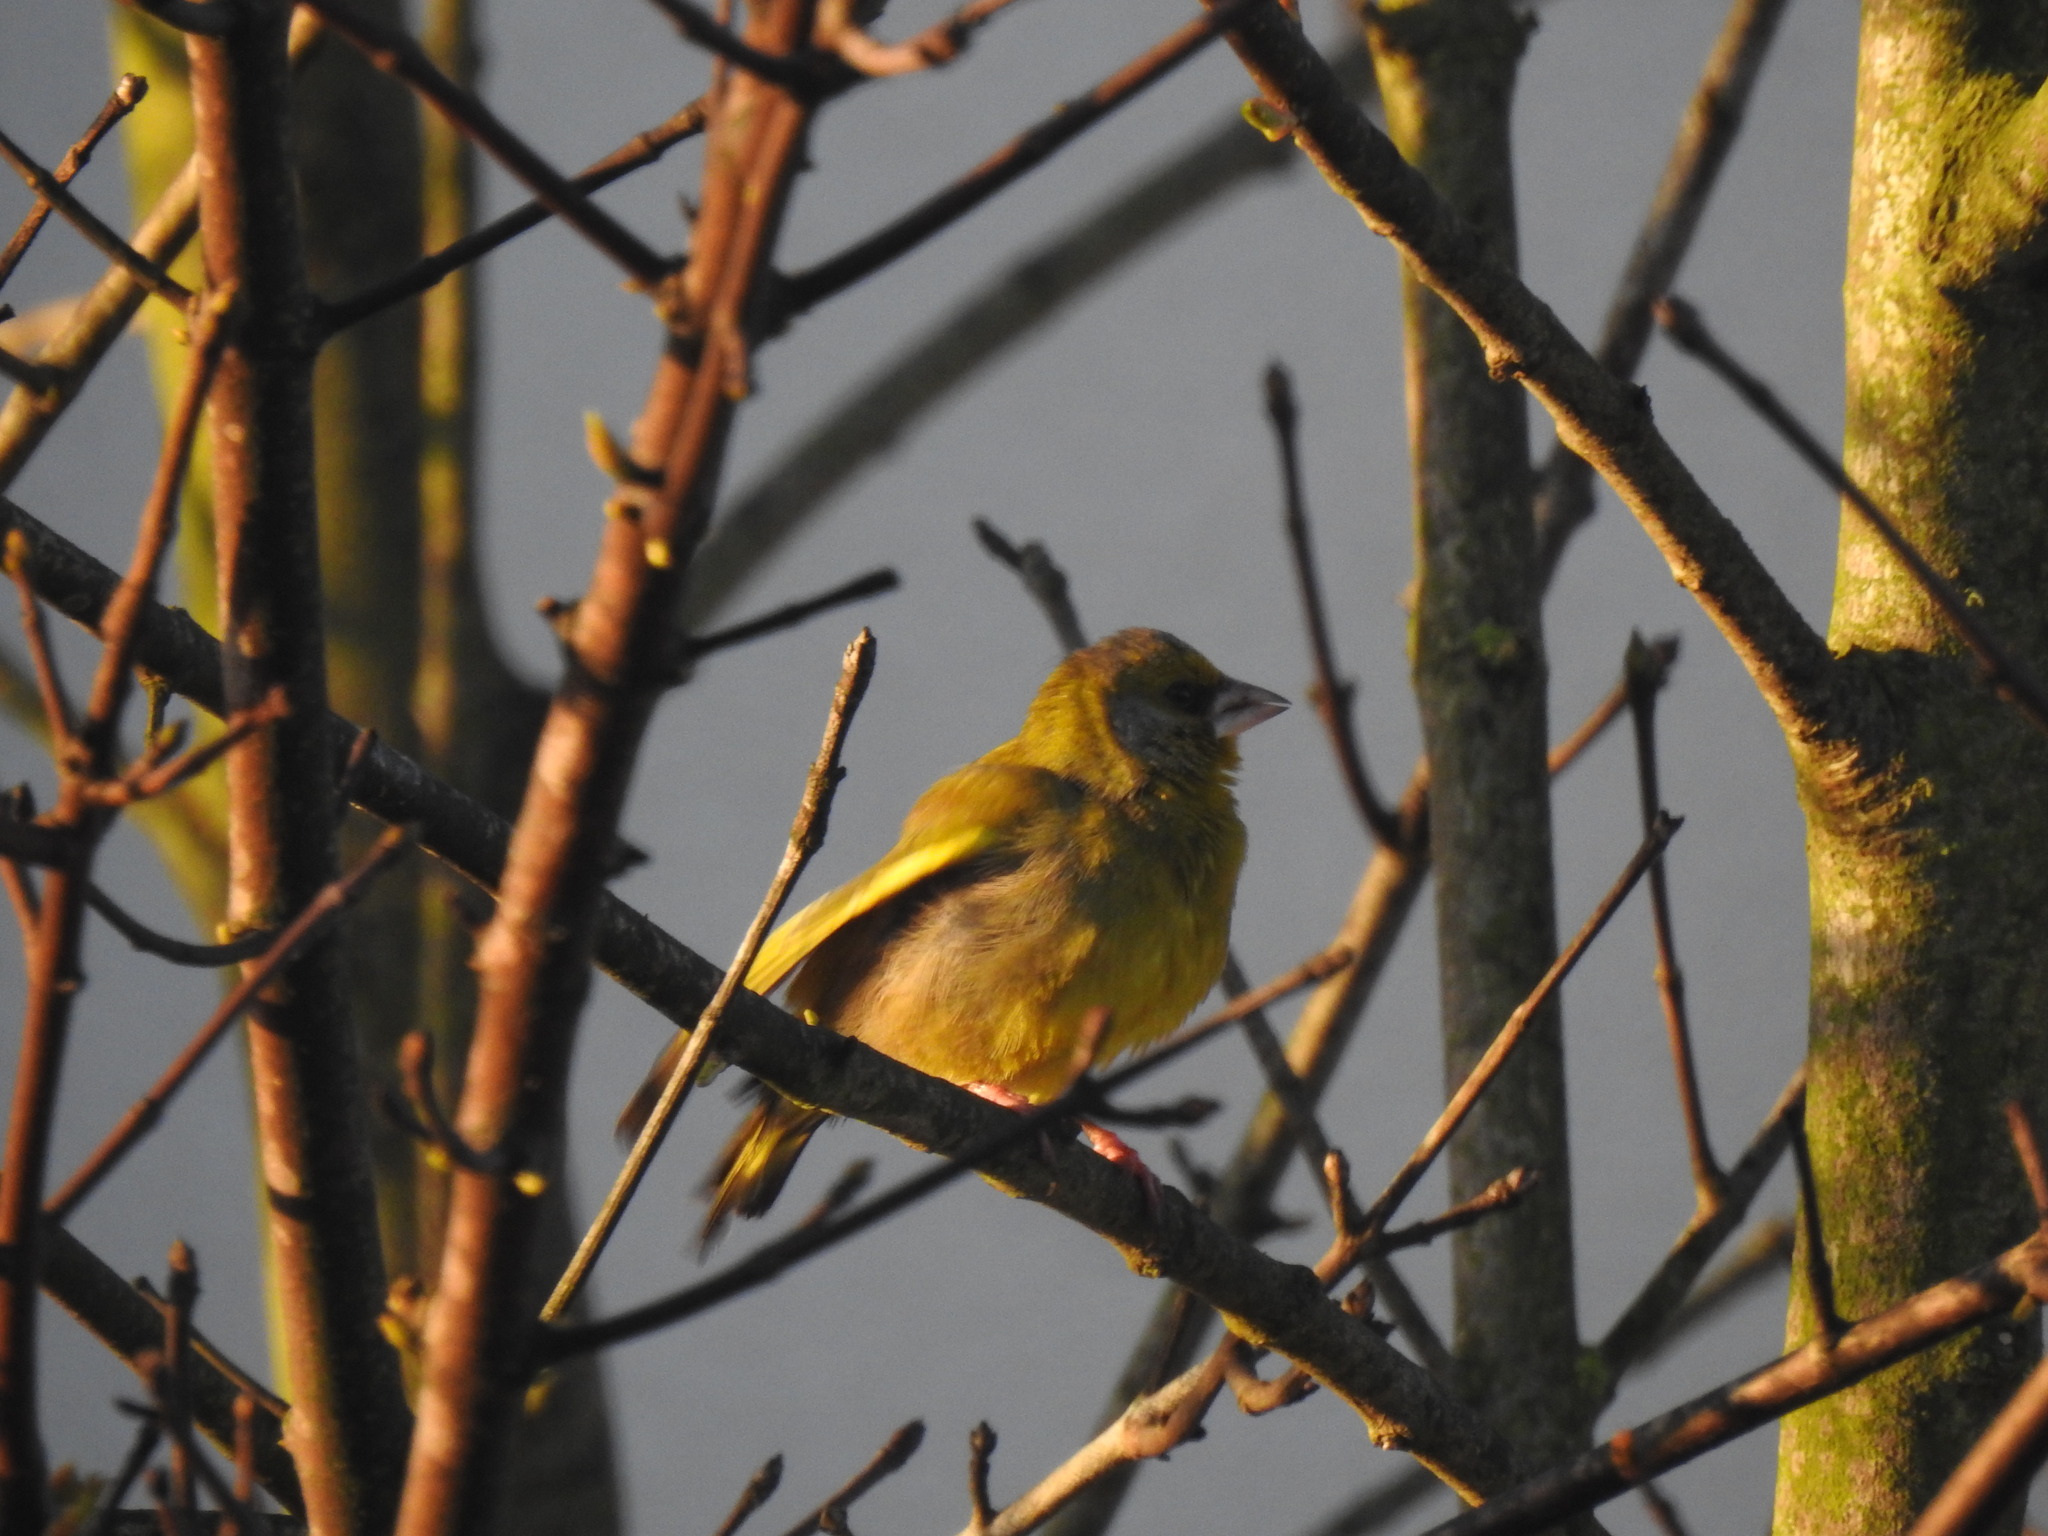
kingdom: Plantae
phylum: Tracheophyta
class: Liliopsida
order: Poales
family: Poaceae
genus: Chloris
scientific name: Chloris chloris
